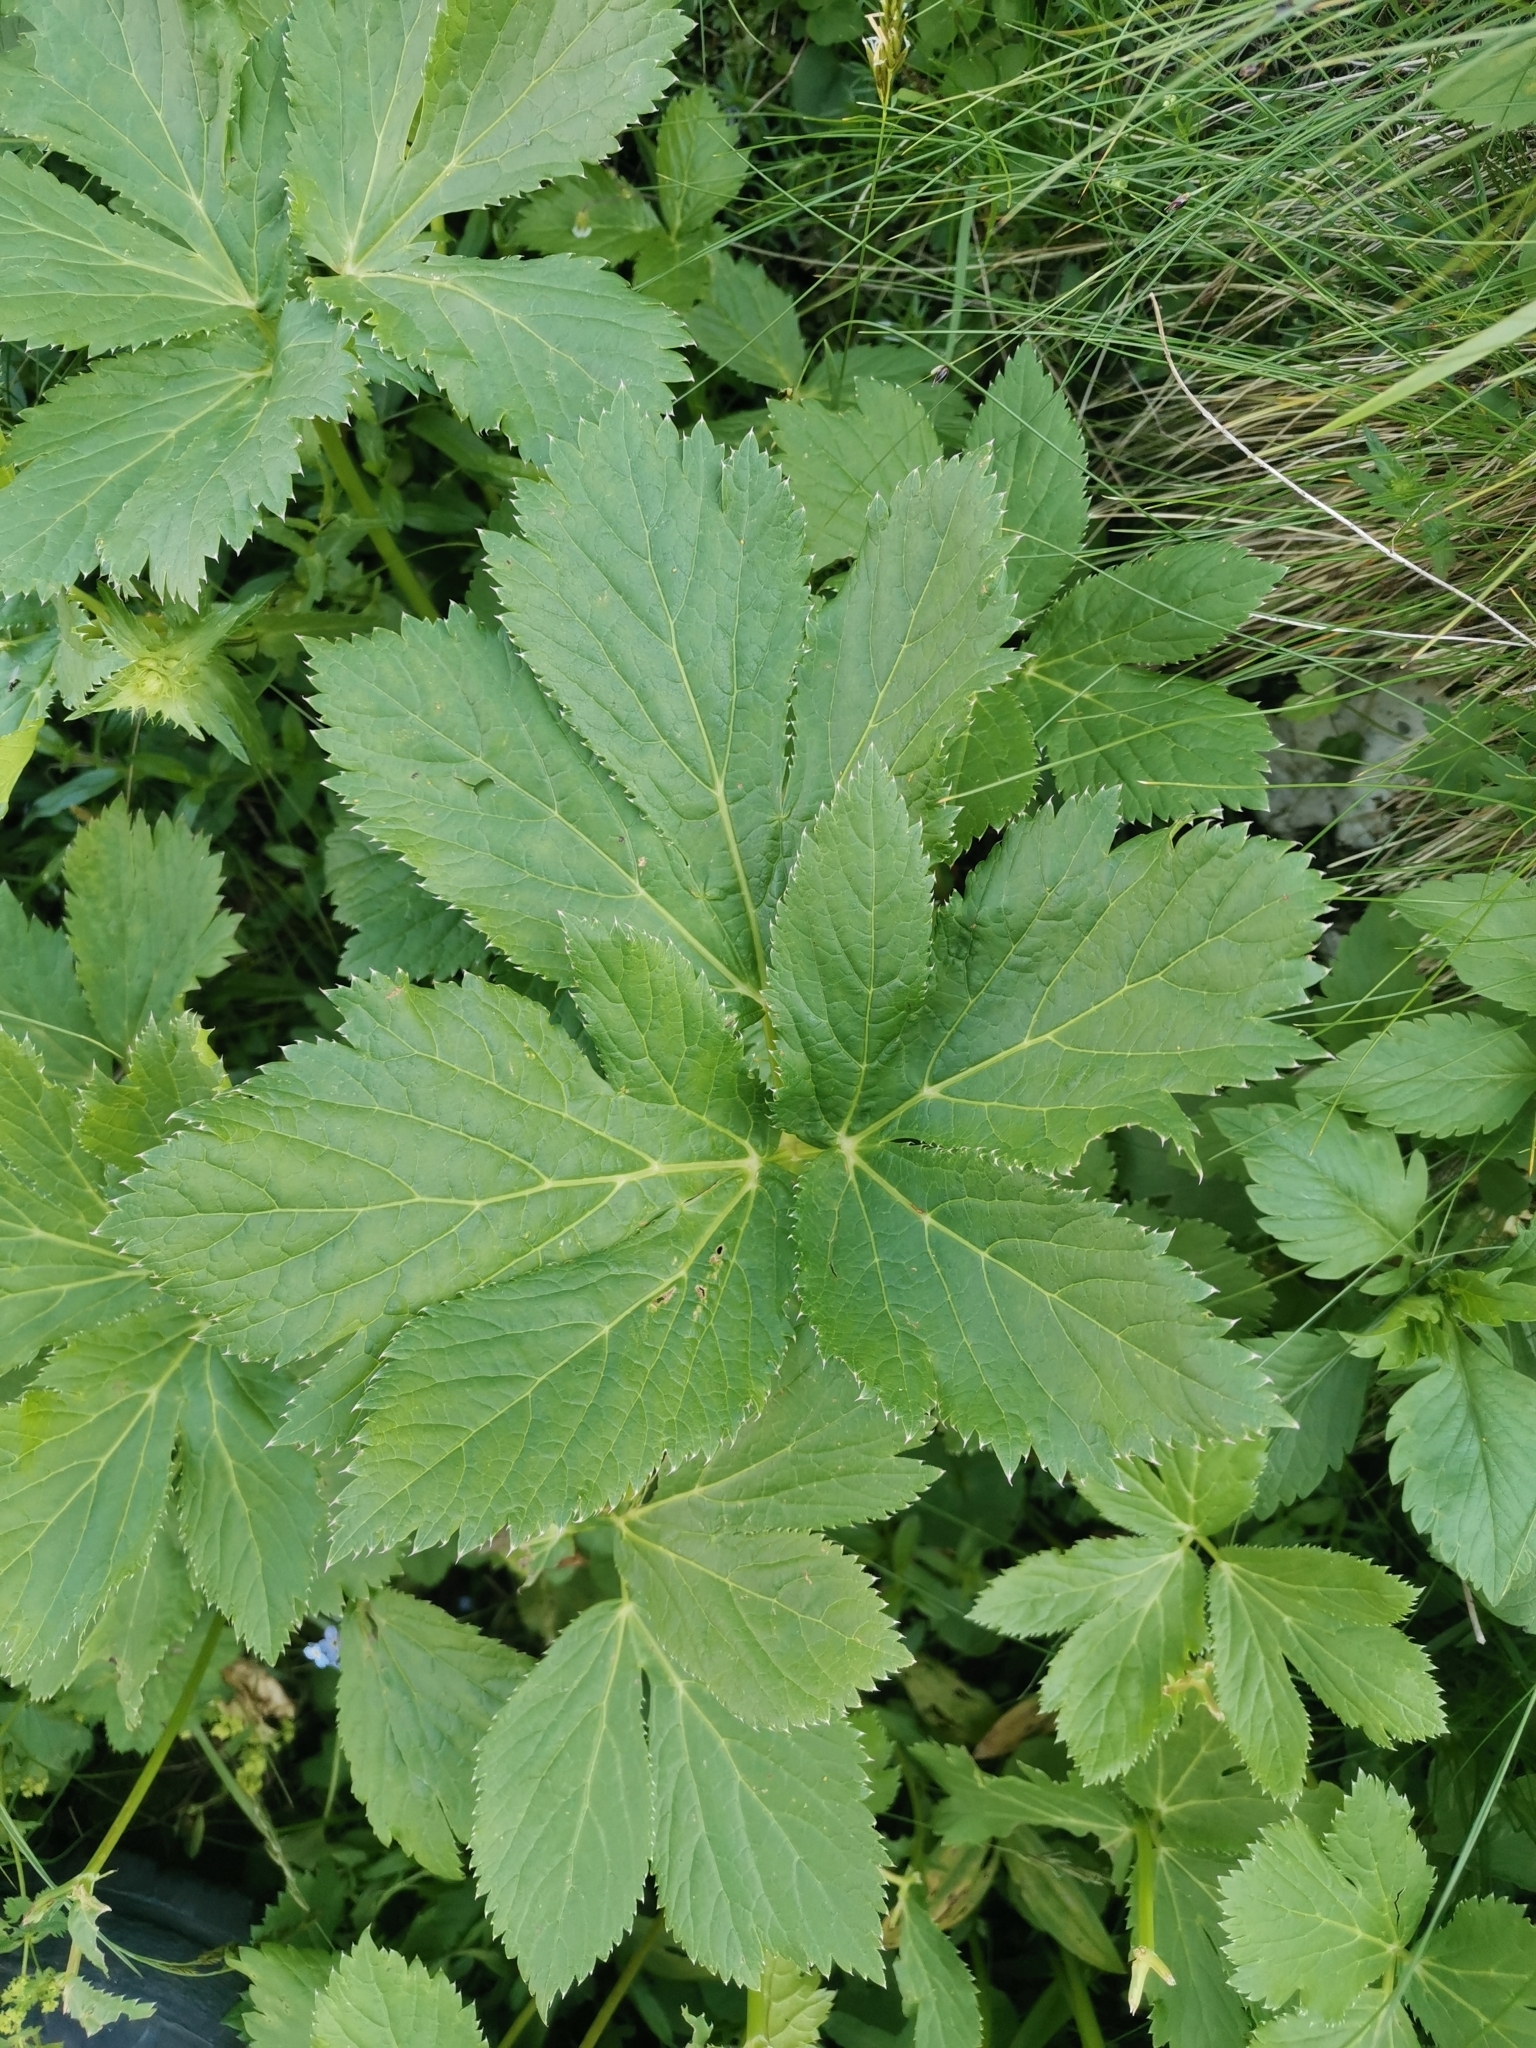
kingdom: Plantae
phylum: Tracheophyta
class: Magnoliopsida
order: Apiales
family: Apiaceae
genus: Imperatoria
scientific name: Imperatoria ostruthium
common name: Masterwort
